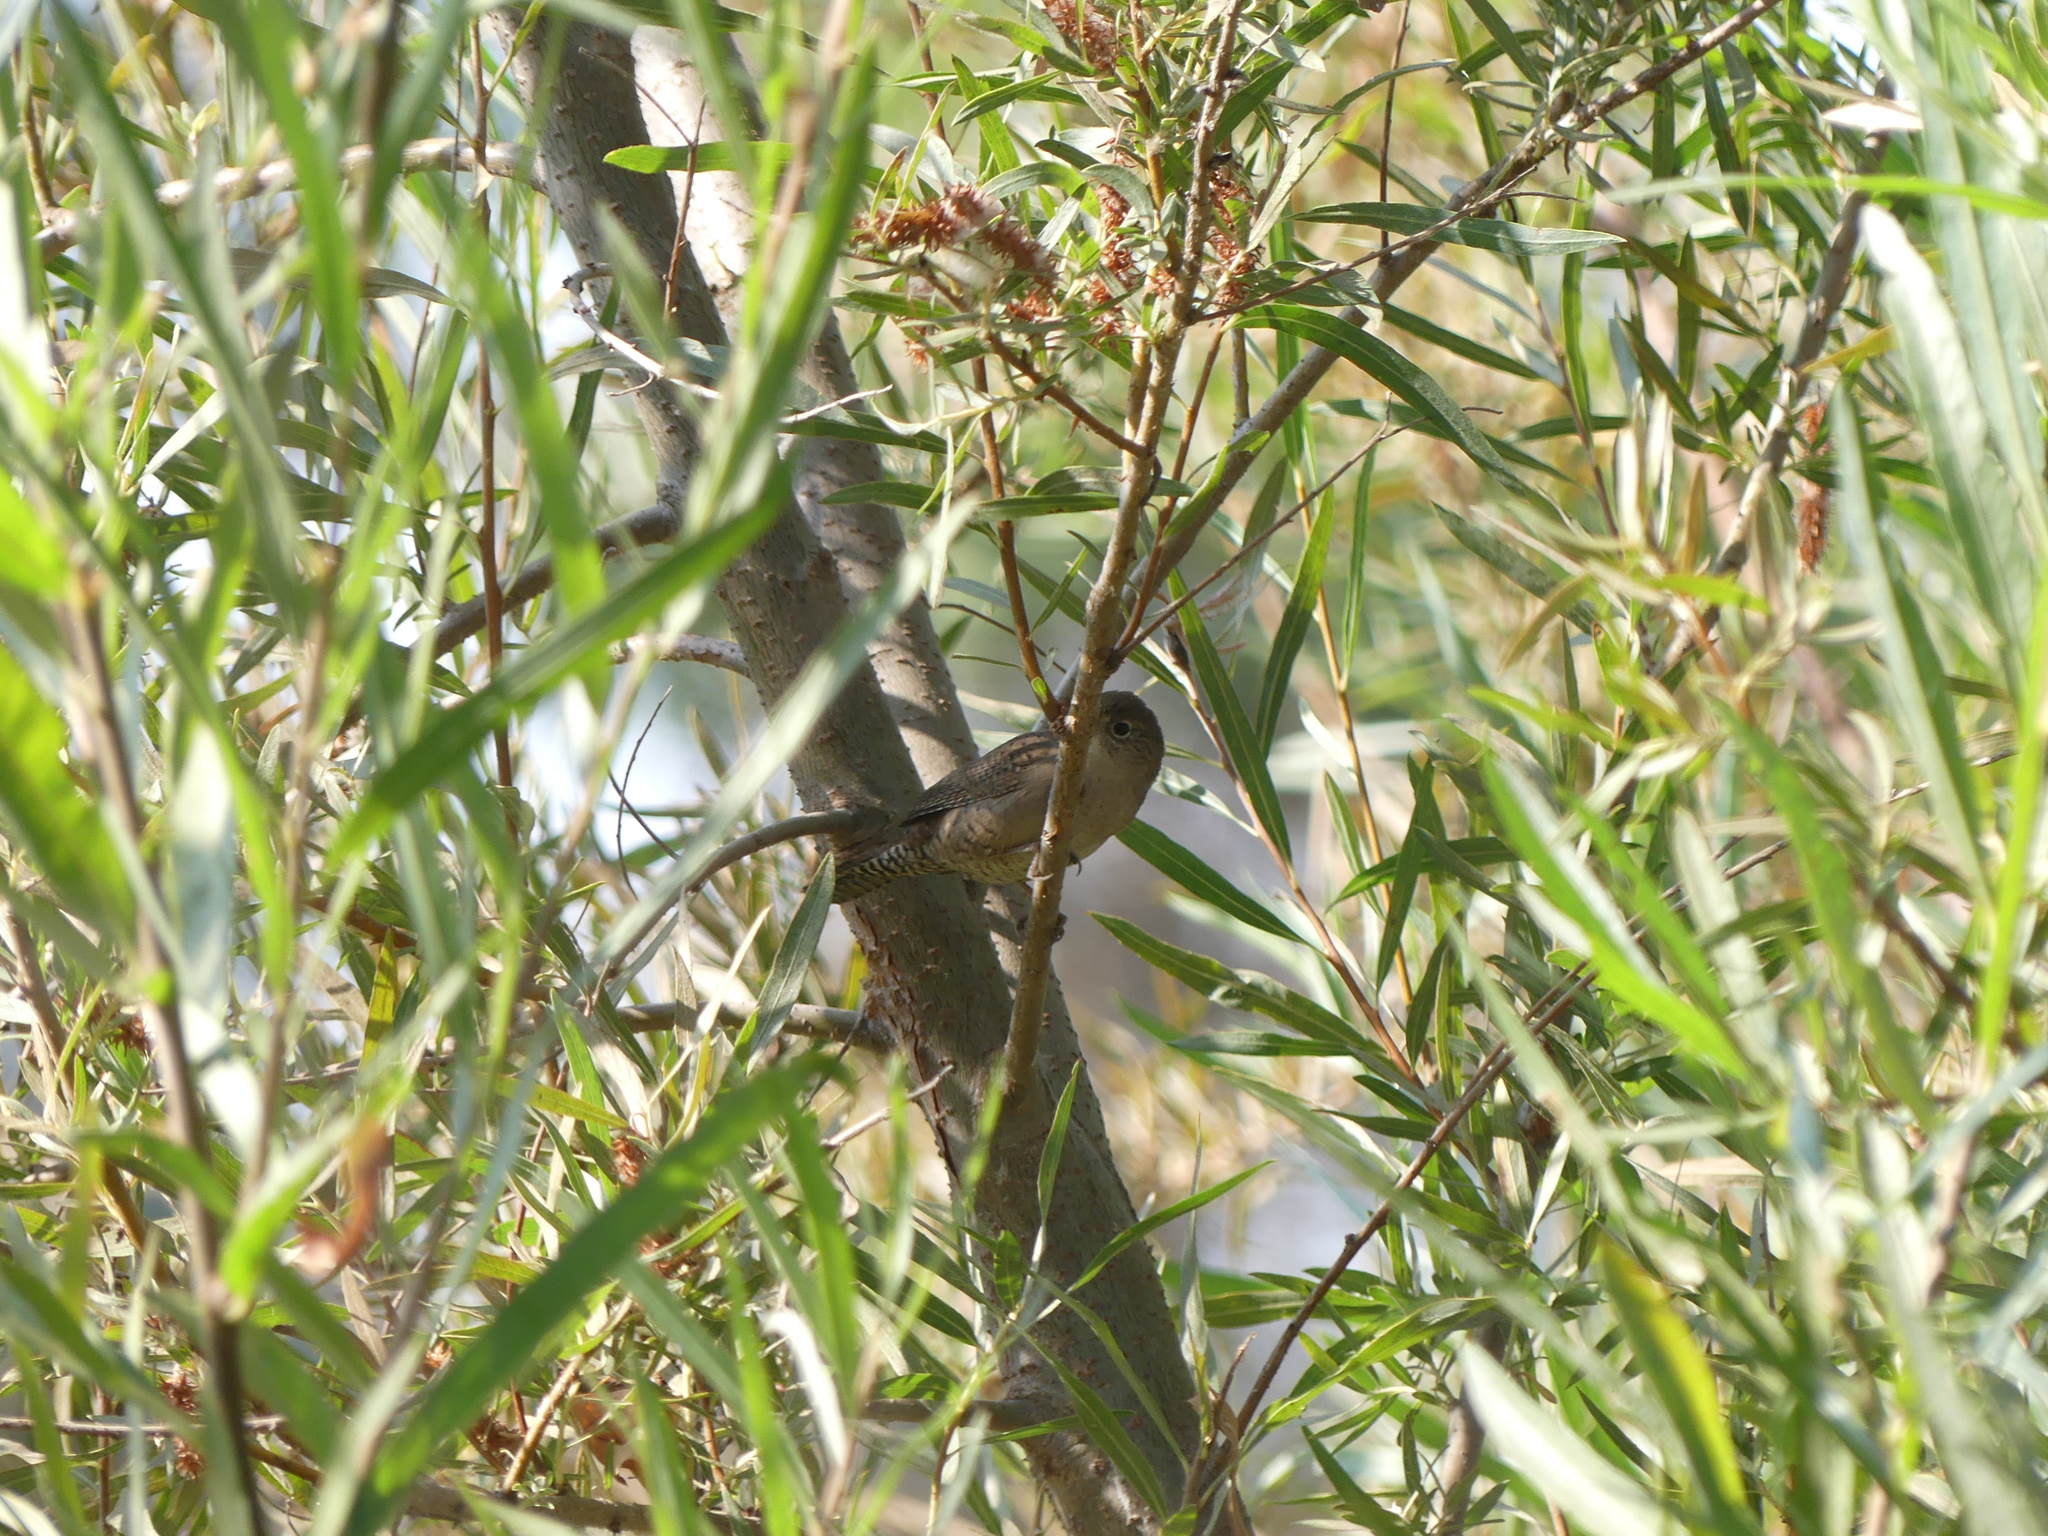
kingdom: Animalia
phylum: Chordata
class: Aves
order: Passeriformes
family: Troglodytidae
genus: Troglodytes
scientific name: Troglodytes aedon
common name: House wren
